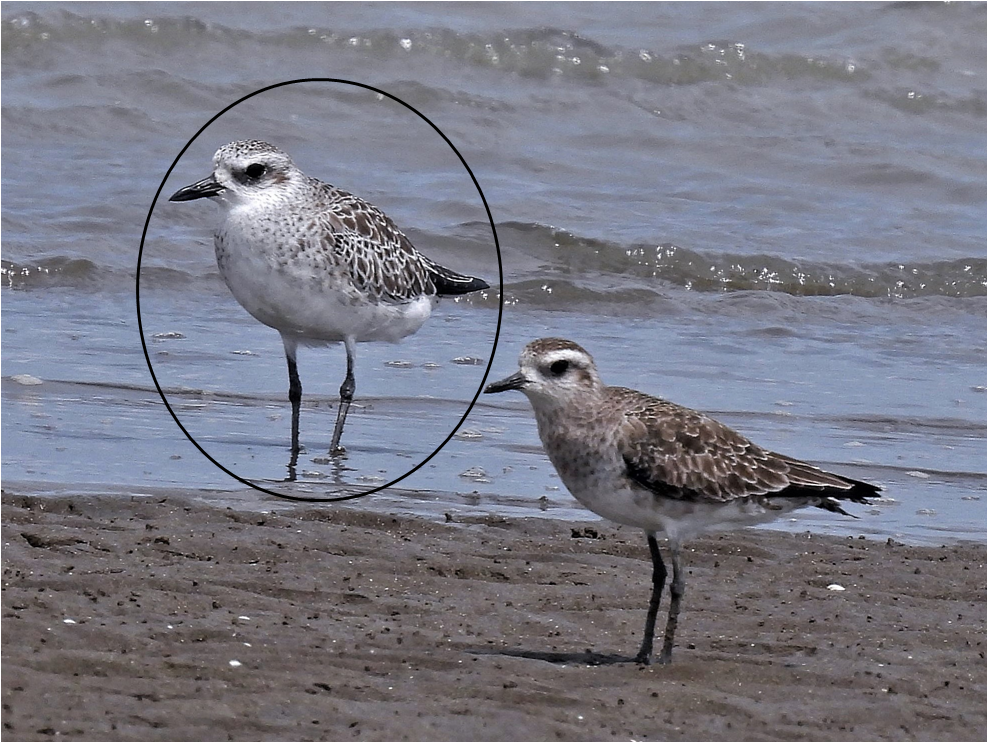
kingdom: Animalia
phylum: Chordata
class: Aves
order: Charadriiformes
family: Charadriidae
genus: Pluvialis
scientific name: Pluvialis squatarola
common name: Grey plover
